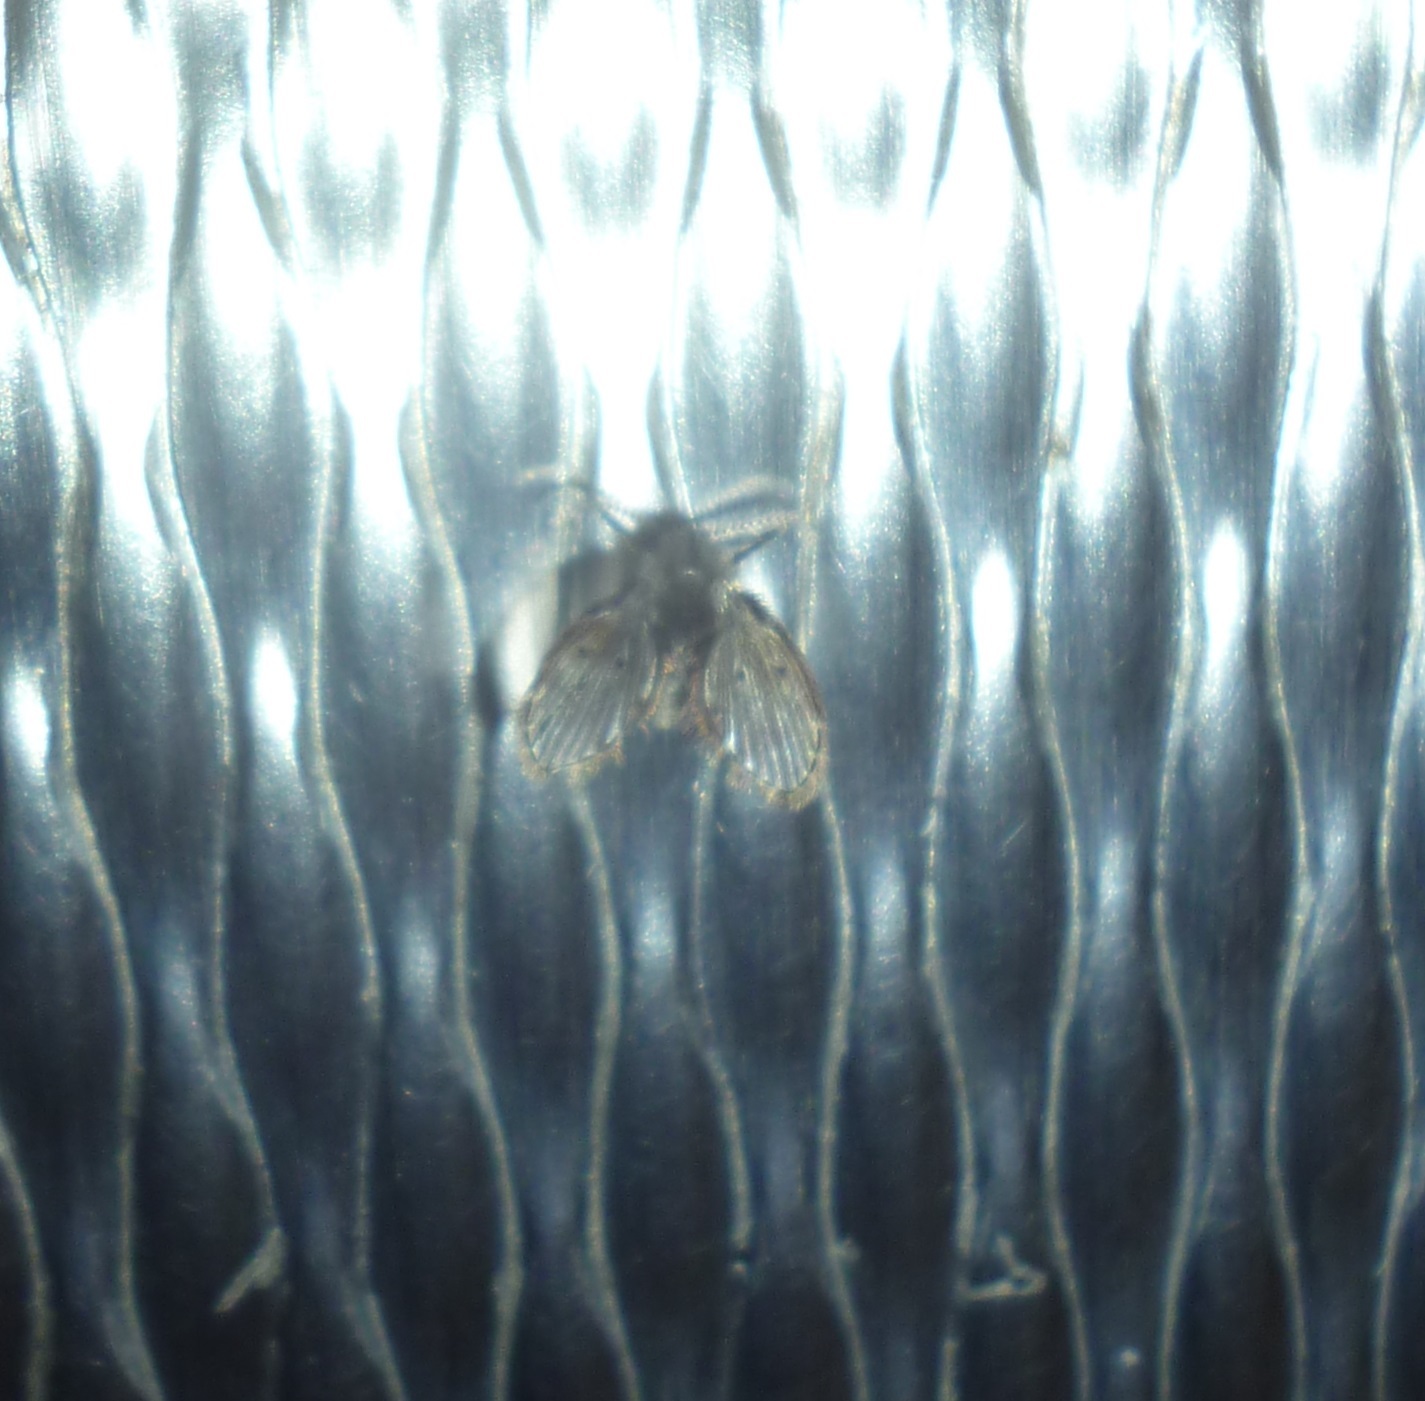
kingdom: Animalia
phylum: Arthropoda
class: Insecta
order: Diptera
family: Psychodidae
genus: Clogmia
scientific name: Clogmia albipunctatus
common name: White-spotted moth fly
